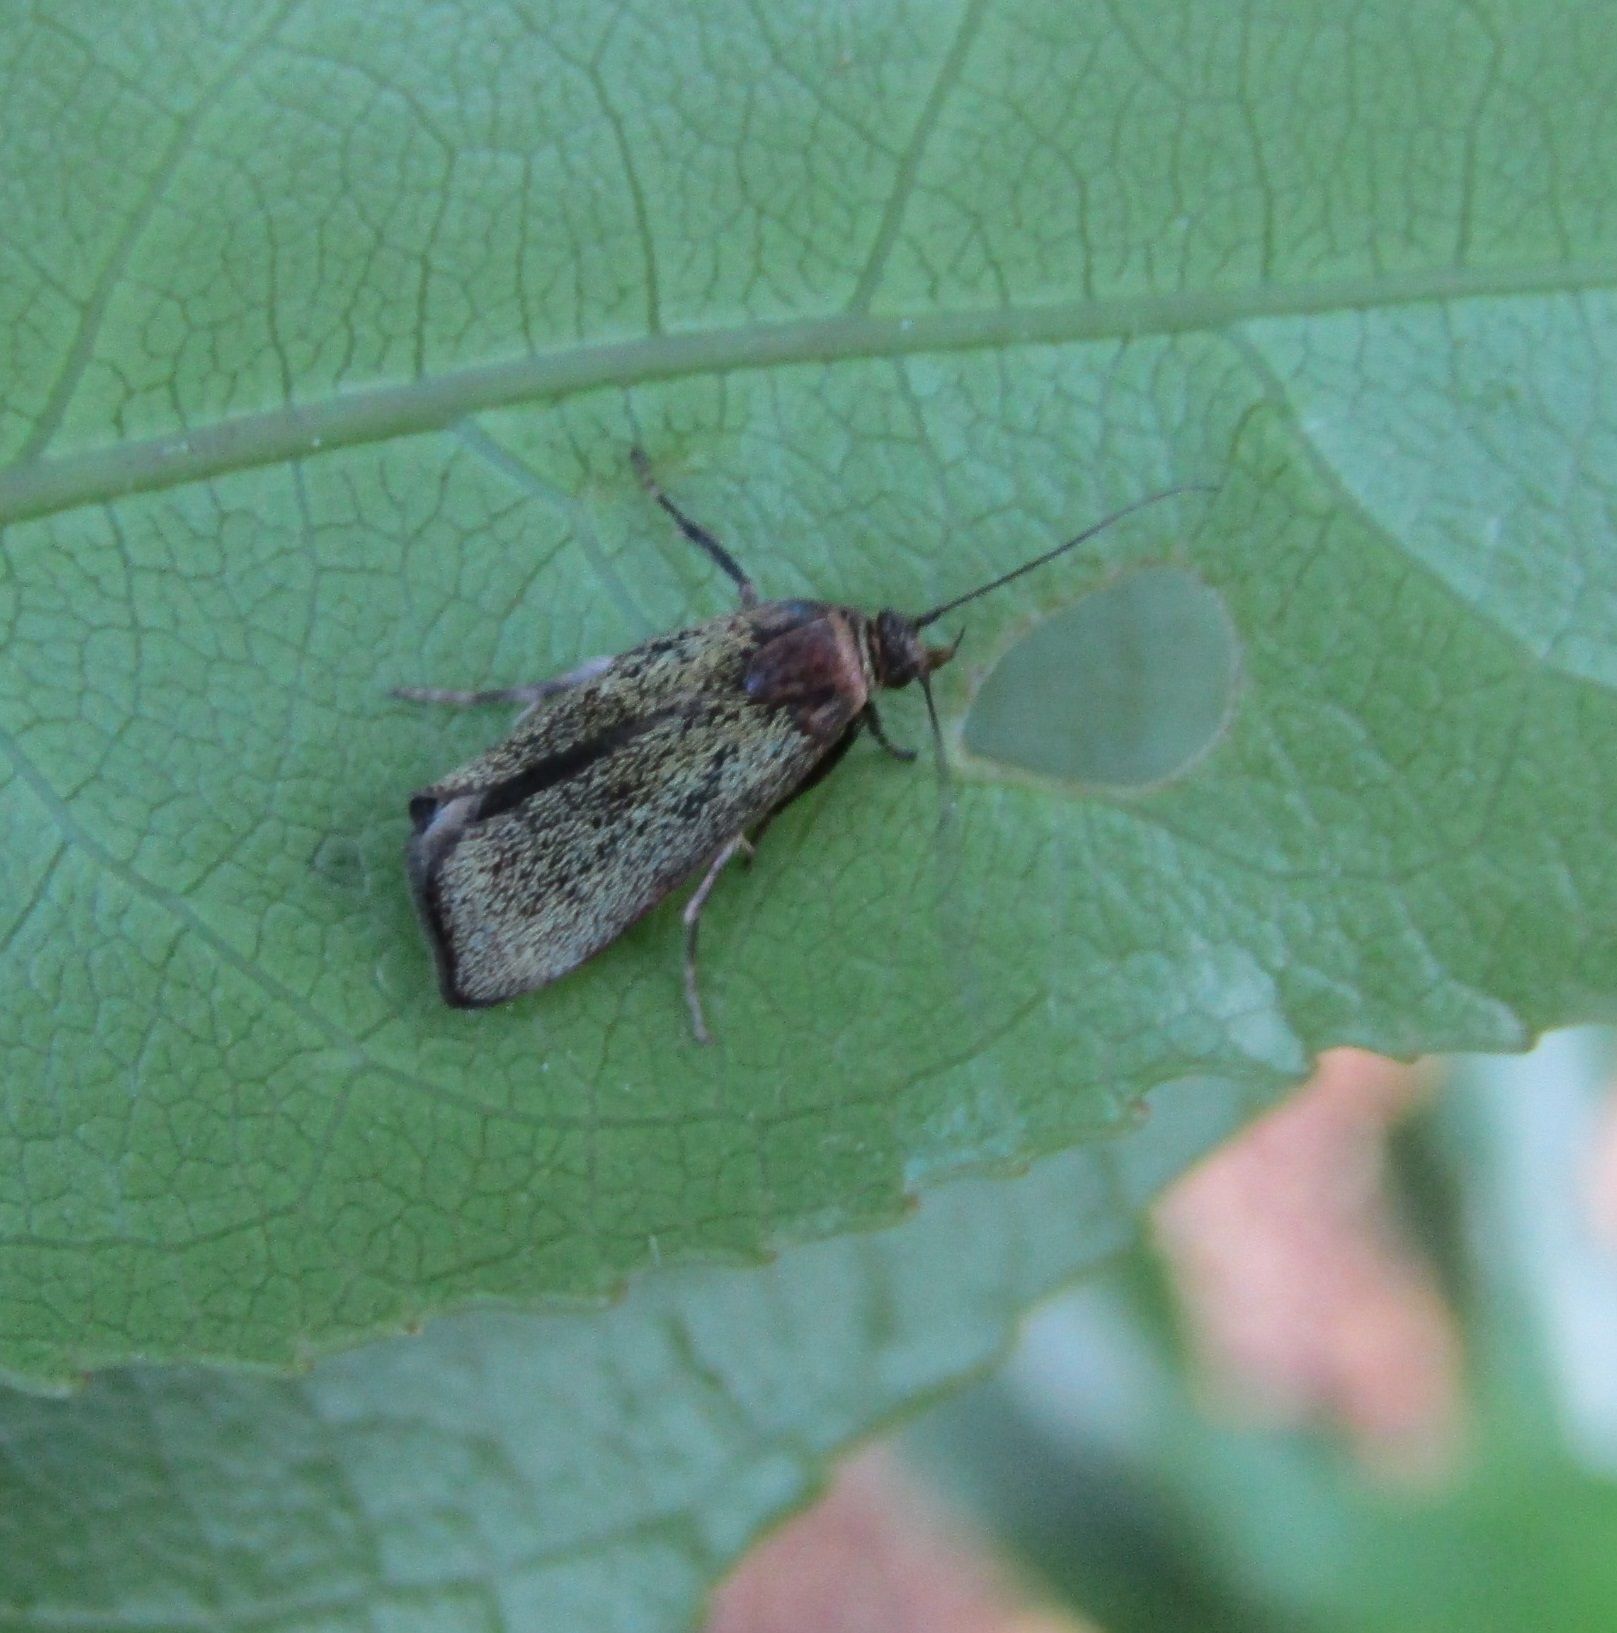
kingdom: Animalia
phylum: Arthropoda
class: Insecta
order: Lepidoptera
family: Oecophoridae
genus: Hierodoris
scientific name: Hierodoris callispora
